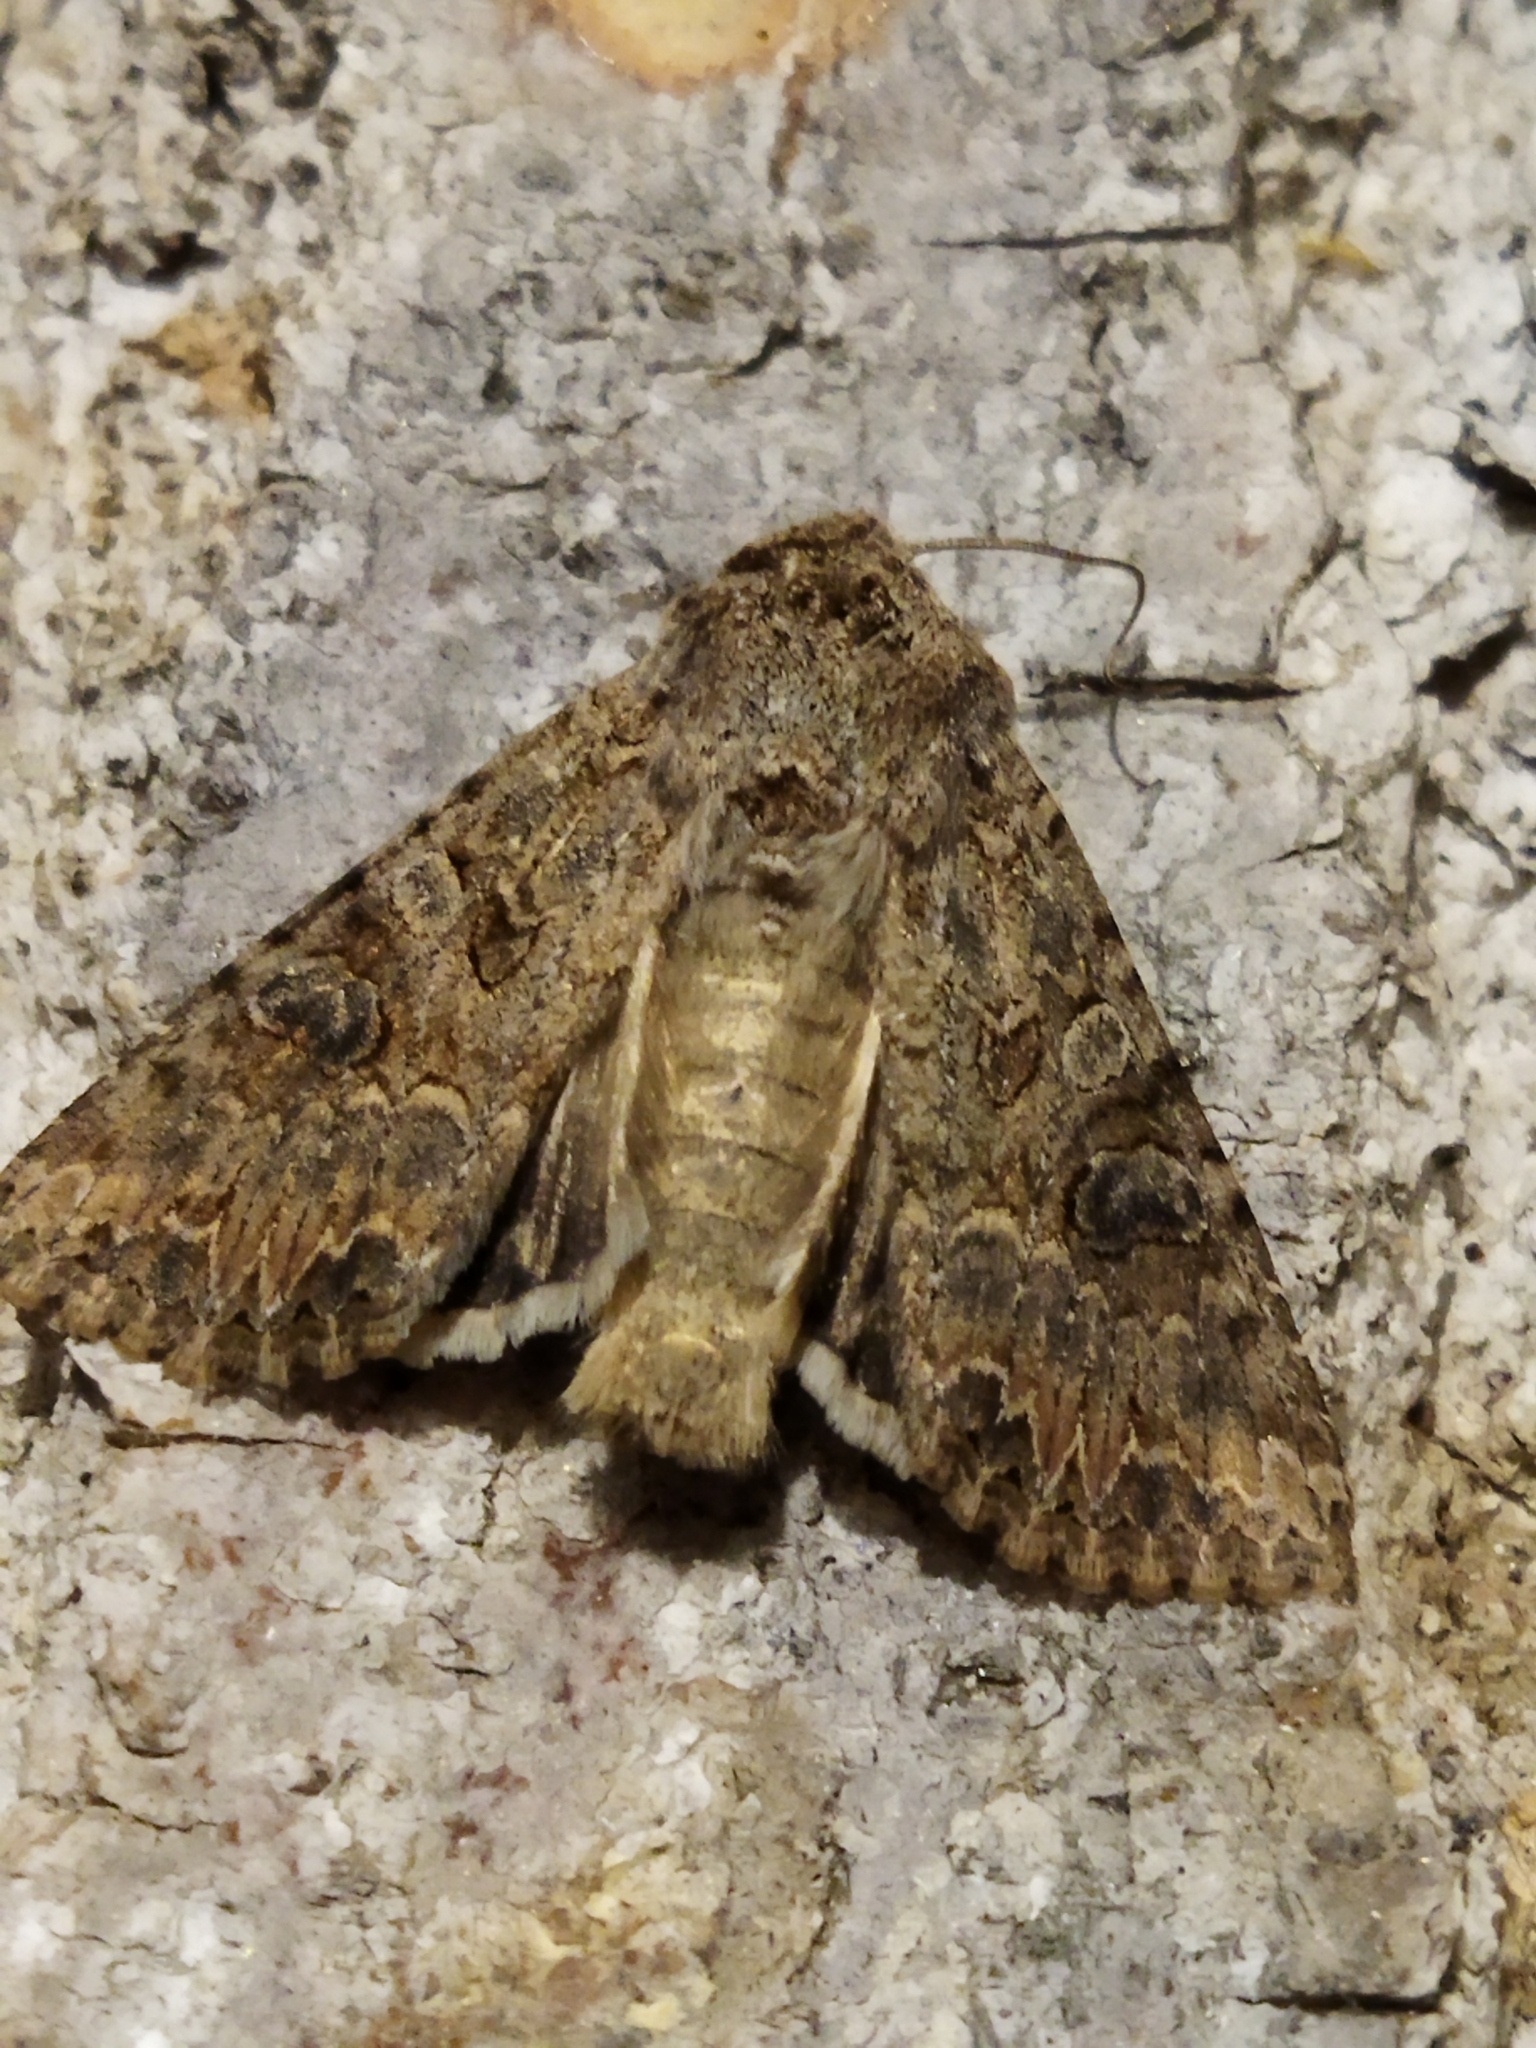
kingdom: Animalia
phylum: Arthropoda
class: Insecta
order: Lepidoptera
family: Noctuidae
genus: Anarta
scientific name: Anarta trifolii
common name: Clover cutworm moth
